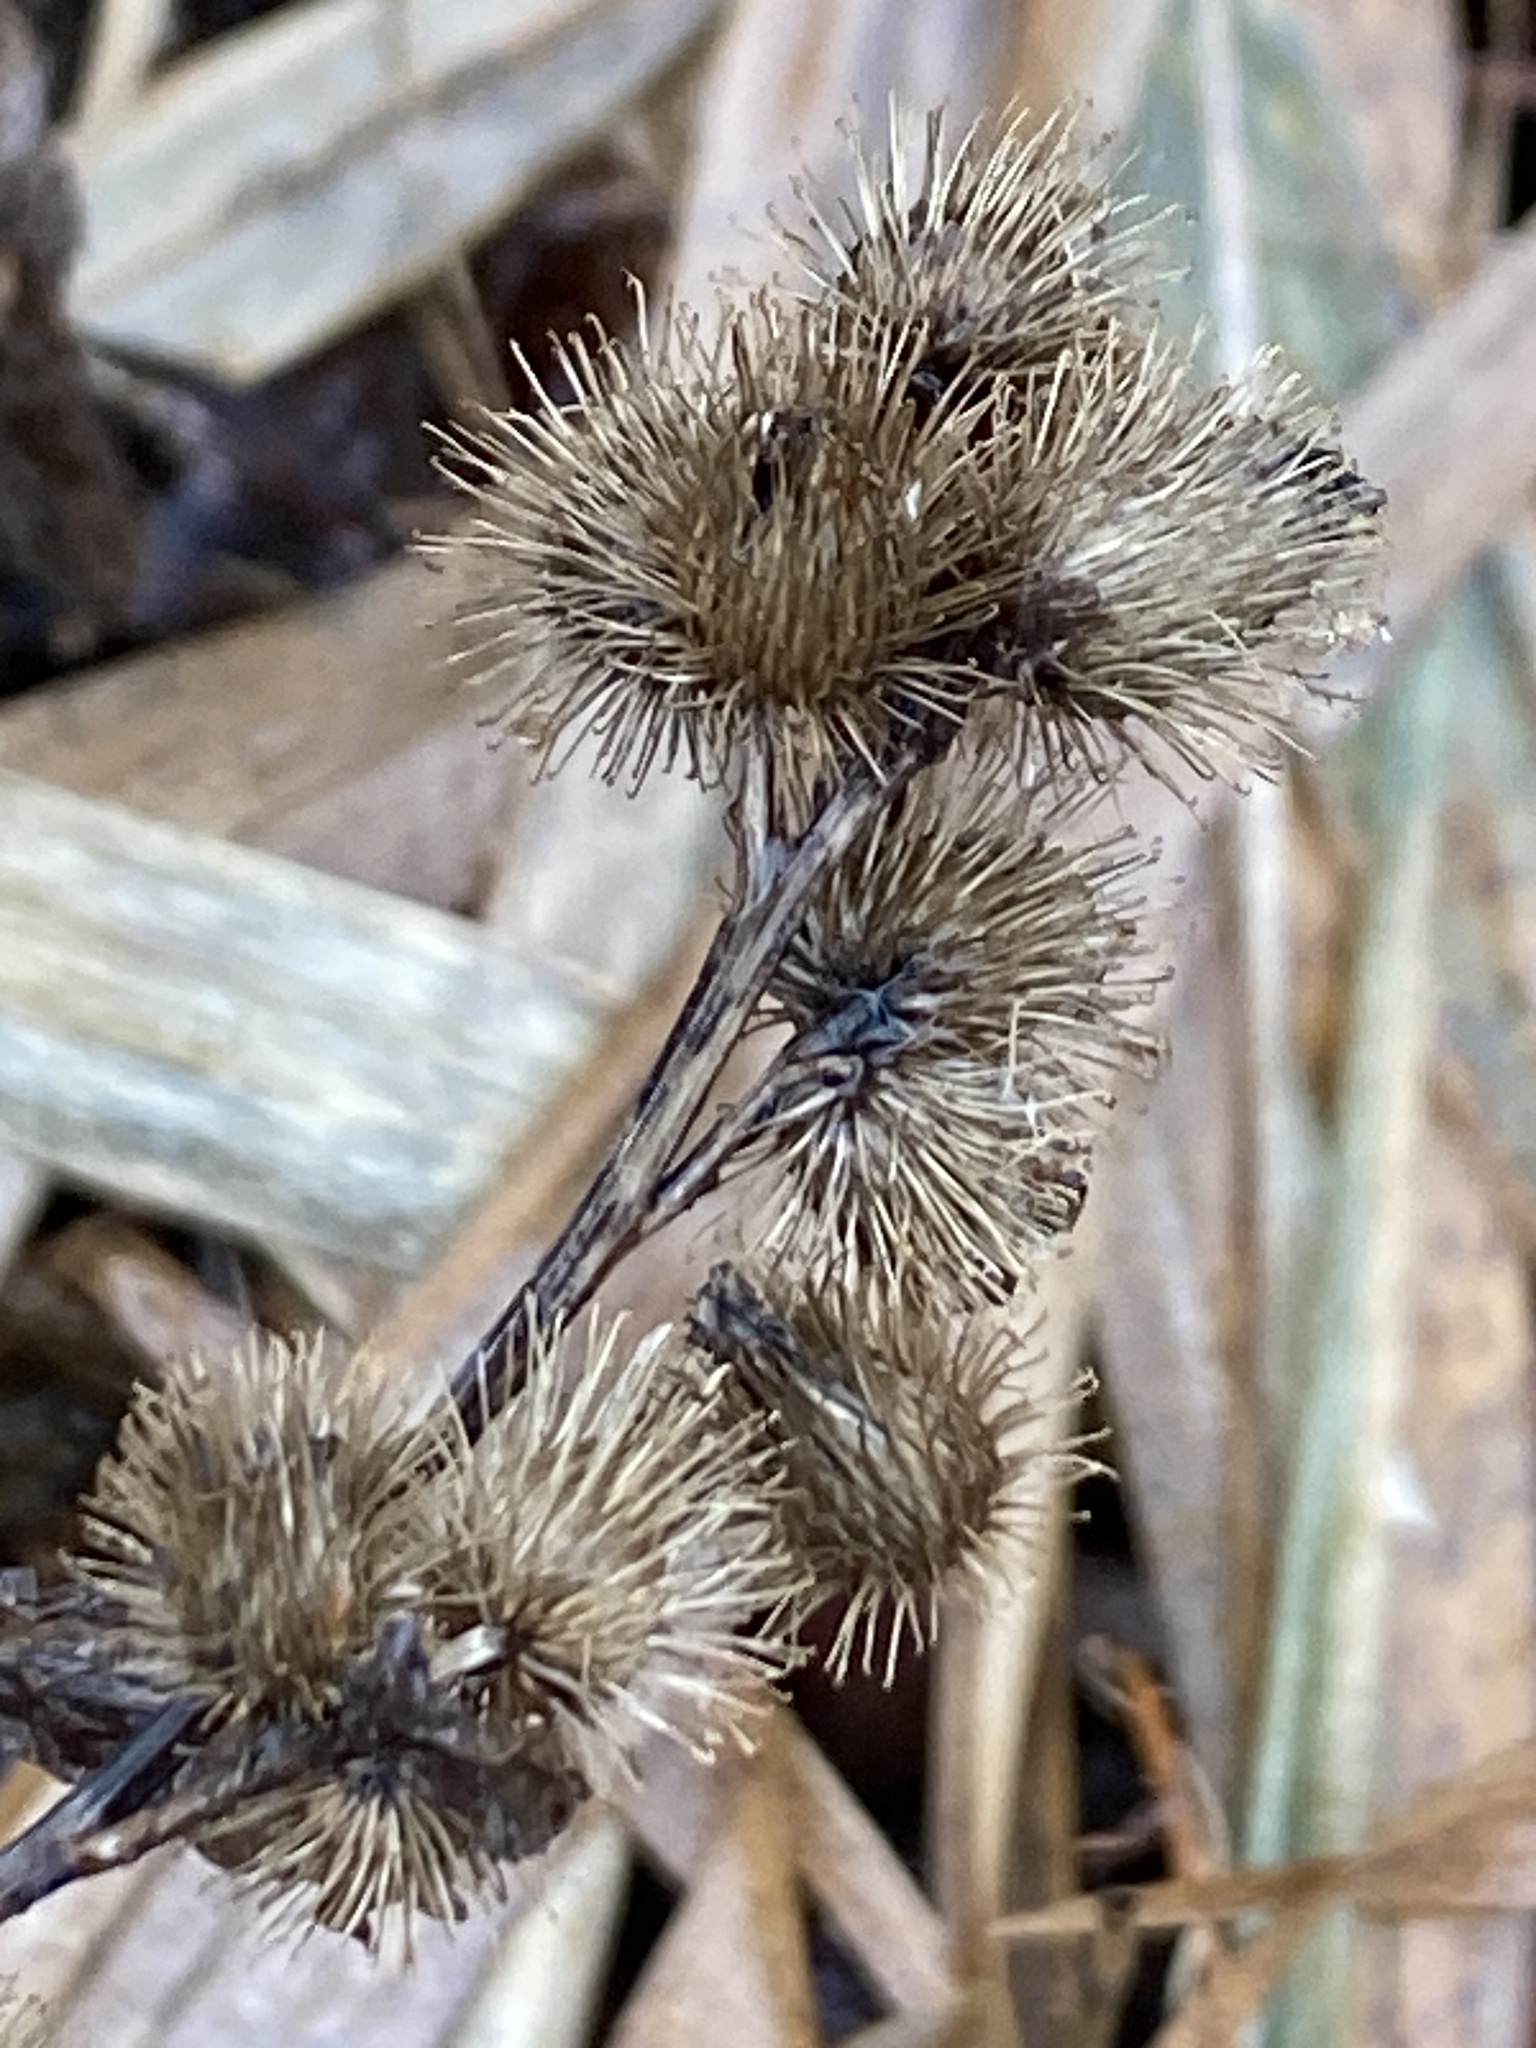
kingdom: Plantae
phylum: Tracheophyta
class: Magnoliopsida
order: Asterales
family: Asteraceae
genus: Arctium
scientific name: Arctium minus
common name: Lesser burdock
